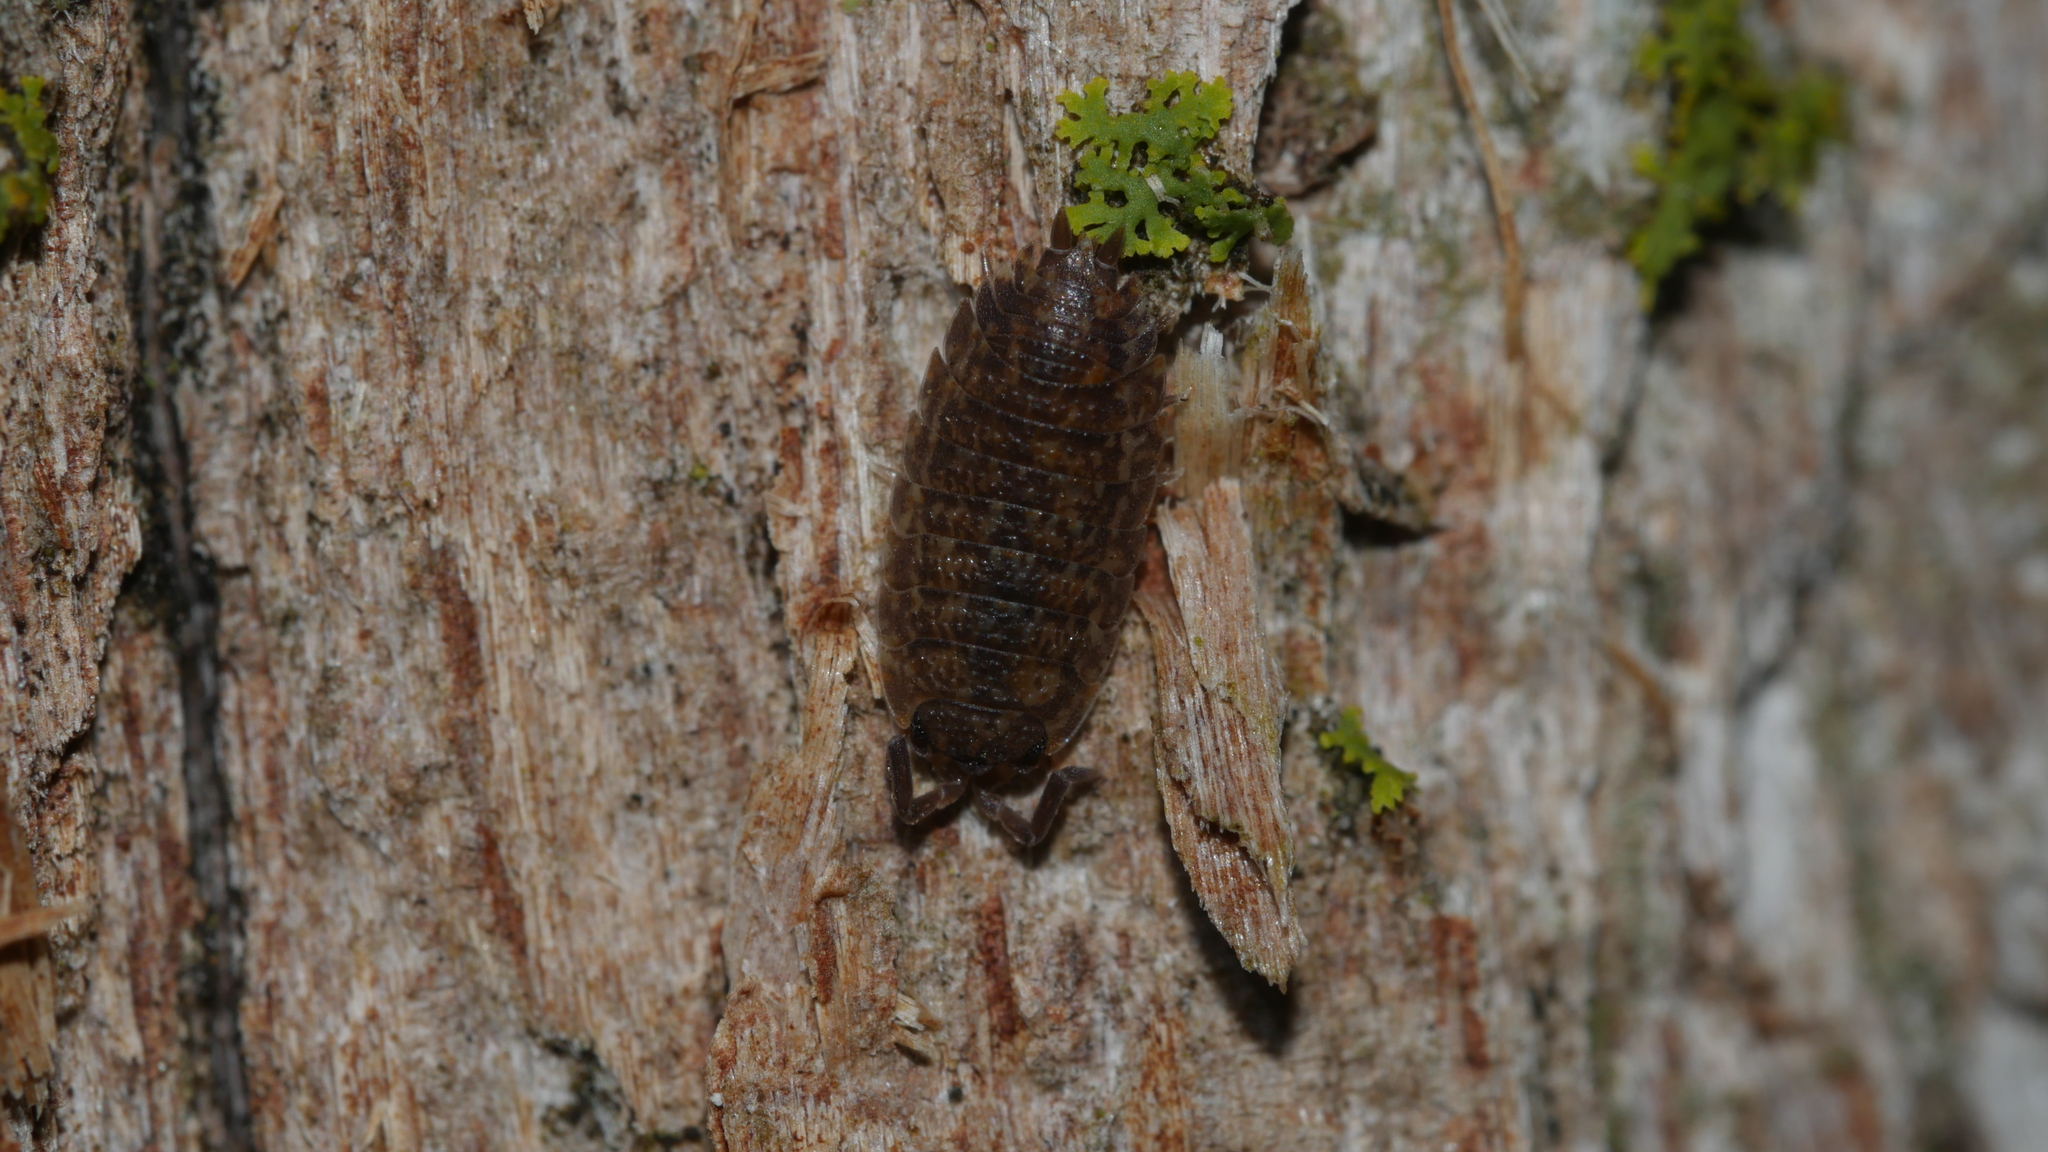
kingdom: Animalia
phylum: Arthropoda
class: Malacostraca
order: Isopoda
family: Porcellionidae
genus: Porcellio
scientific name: Porcellio scaber
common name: Common rough woodlouse
